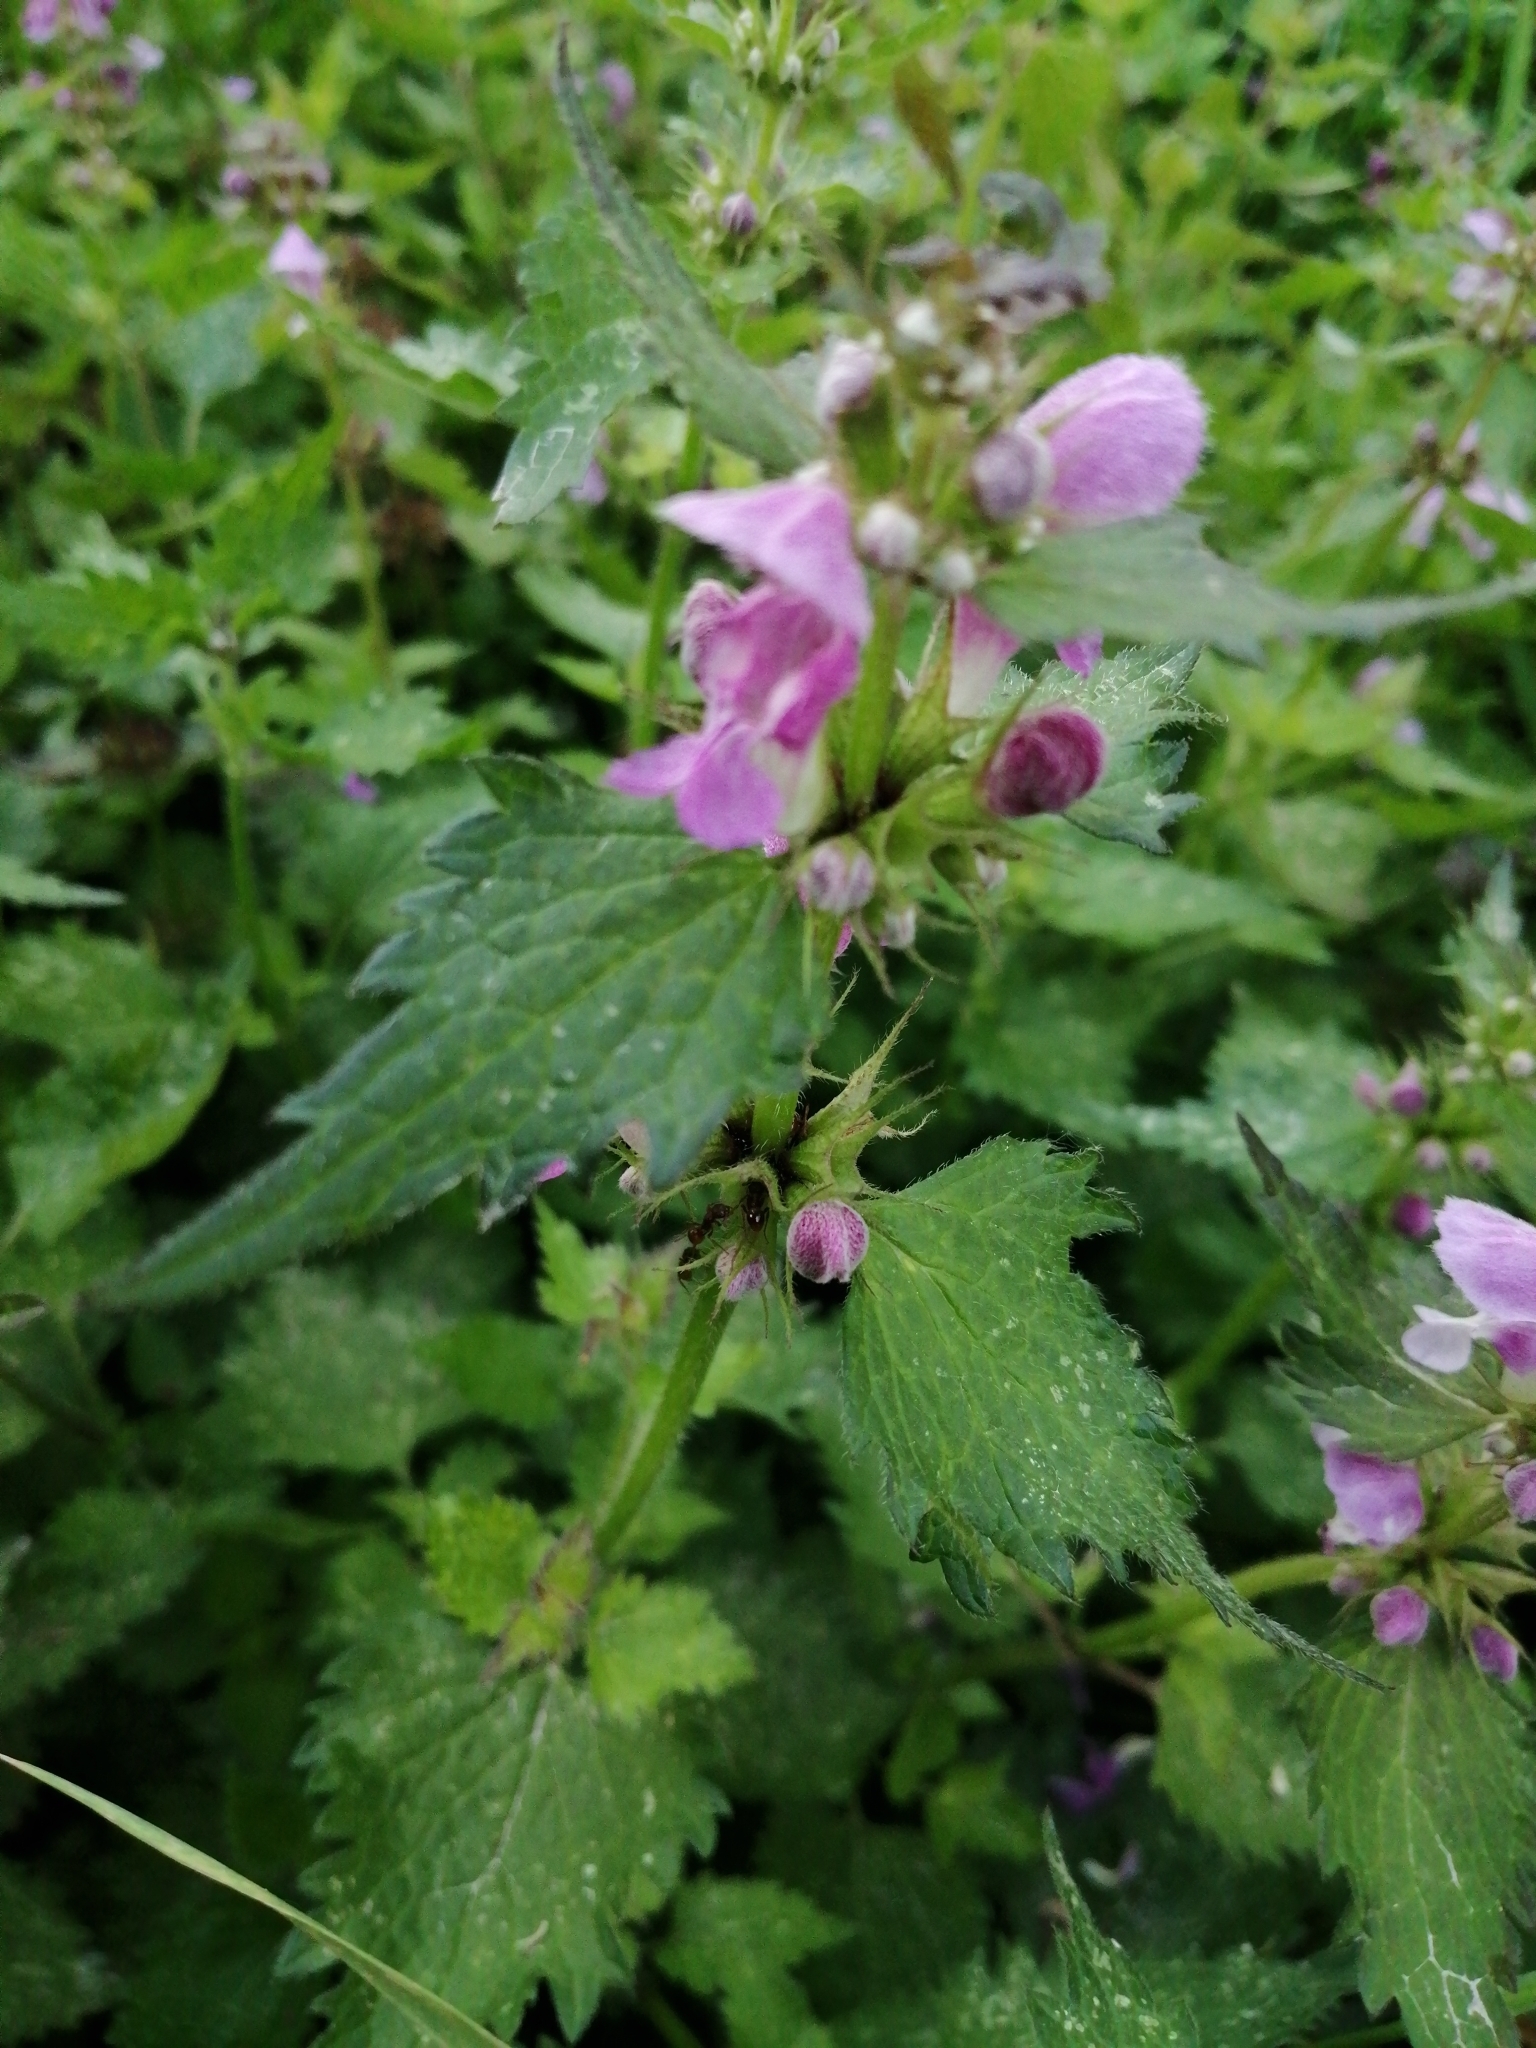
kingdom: Plantae
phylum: Tracheophyta
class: Magnoliopsida
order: Lamiales
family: Lamiaceae
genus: Lamium
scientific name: Lamium maculatum
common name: Spotted dead-nettle
